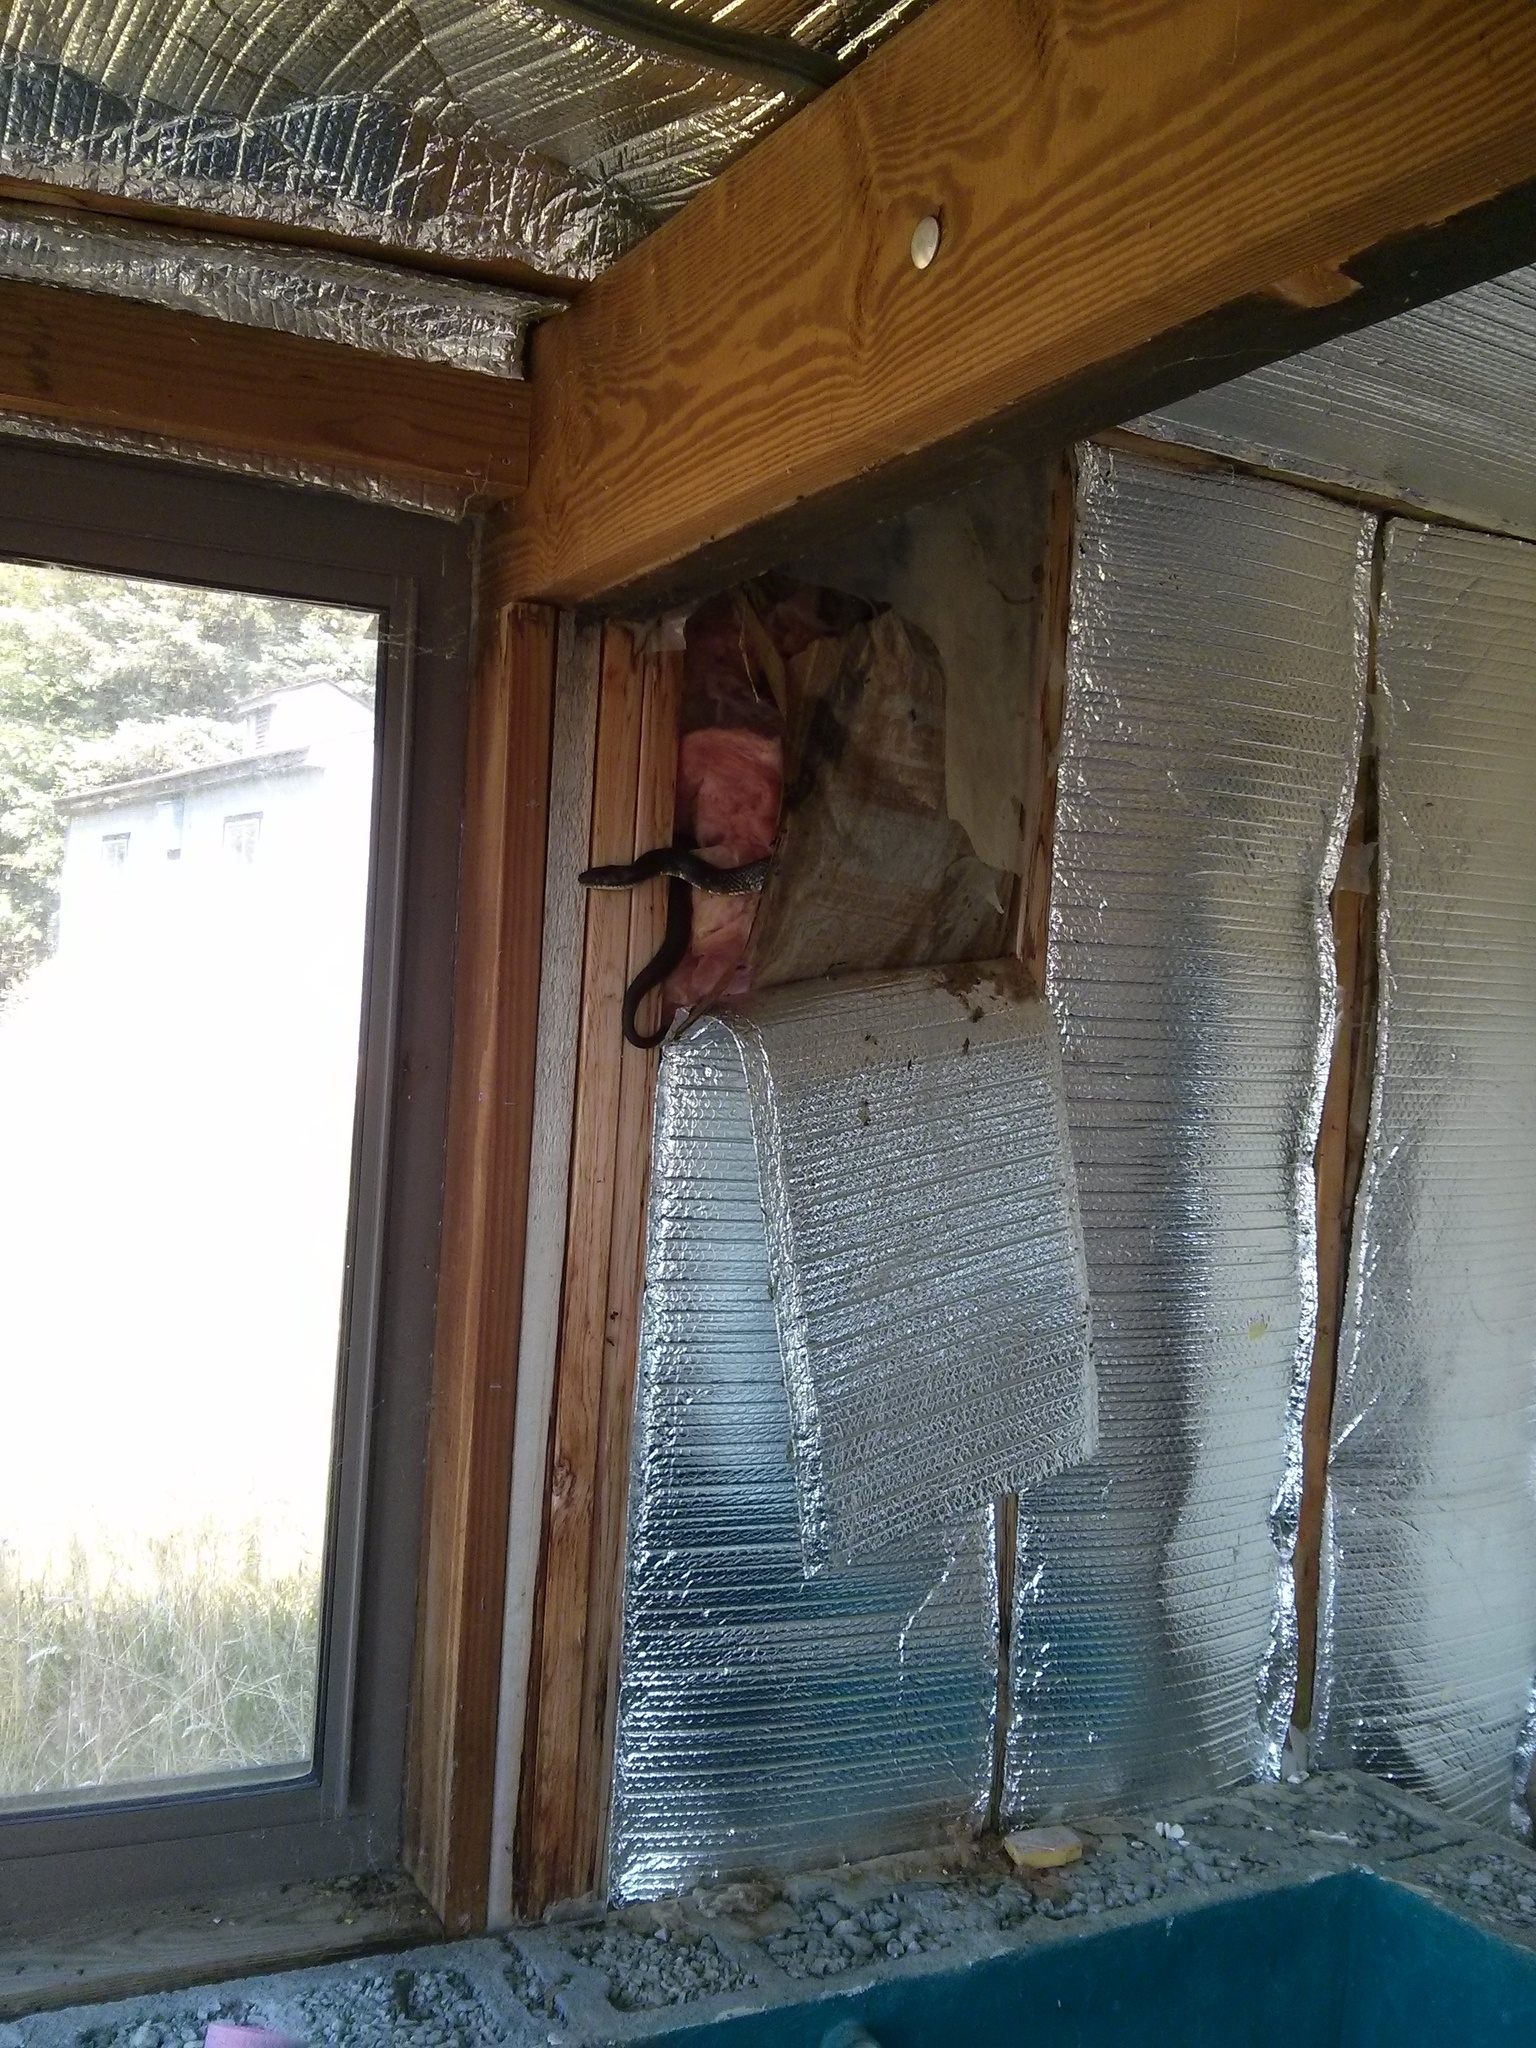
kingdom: Animalia
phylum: Chordata
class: Squamata
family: Colubridae
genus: Pantherophis
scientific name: Pantherophis
